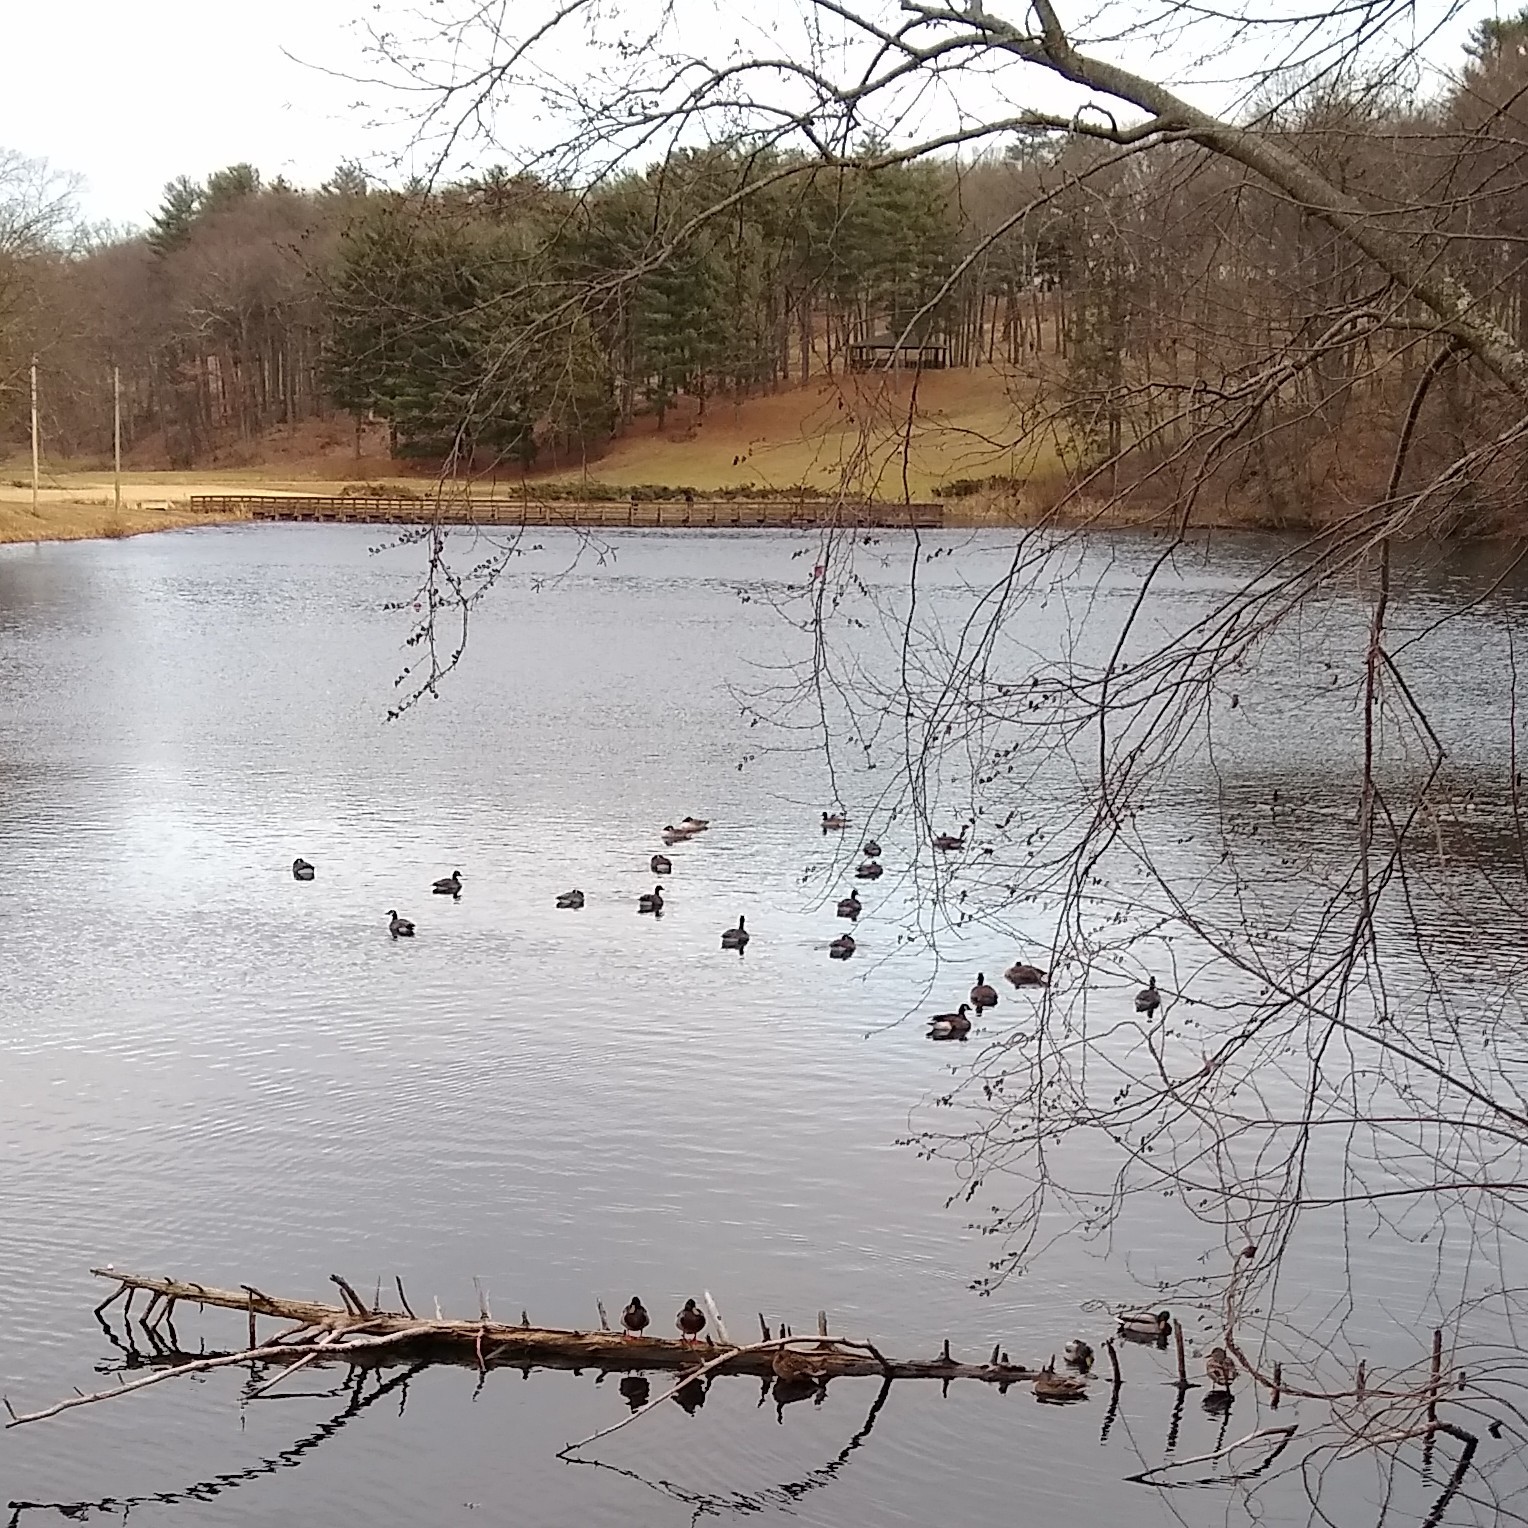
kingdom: Animalia
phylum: Chordata
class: Aves
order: Anseriformes
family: Anatidae
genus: Anas
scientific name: Anas platyrhynchos
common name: Mallard
